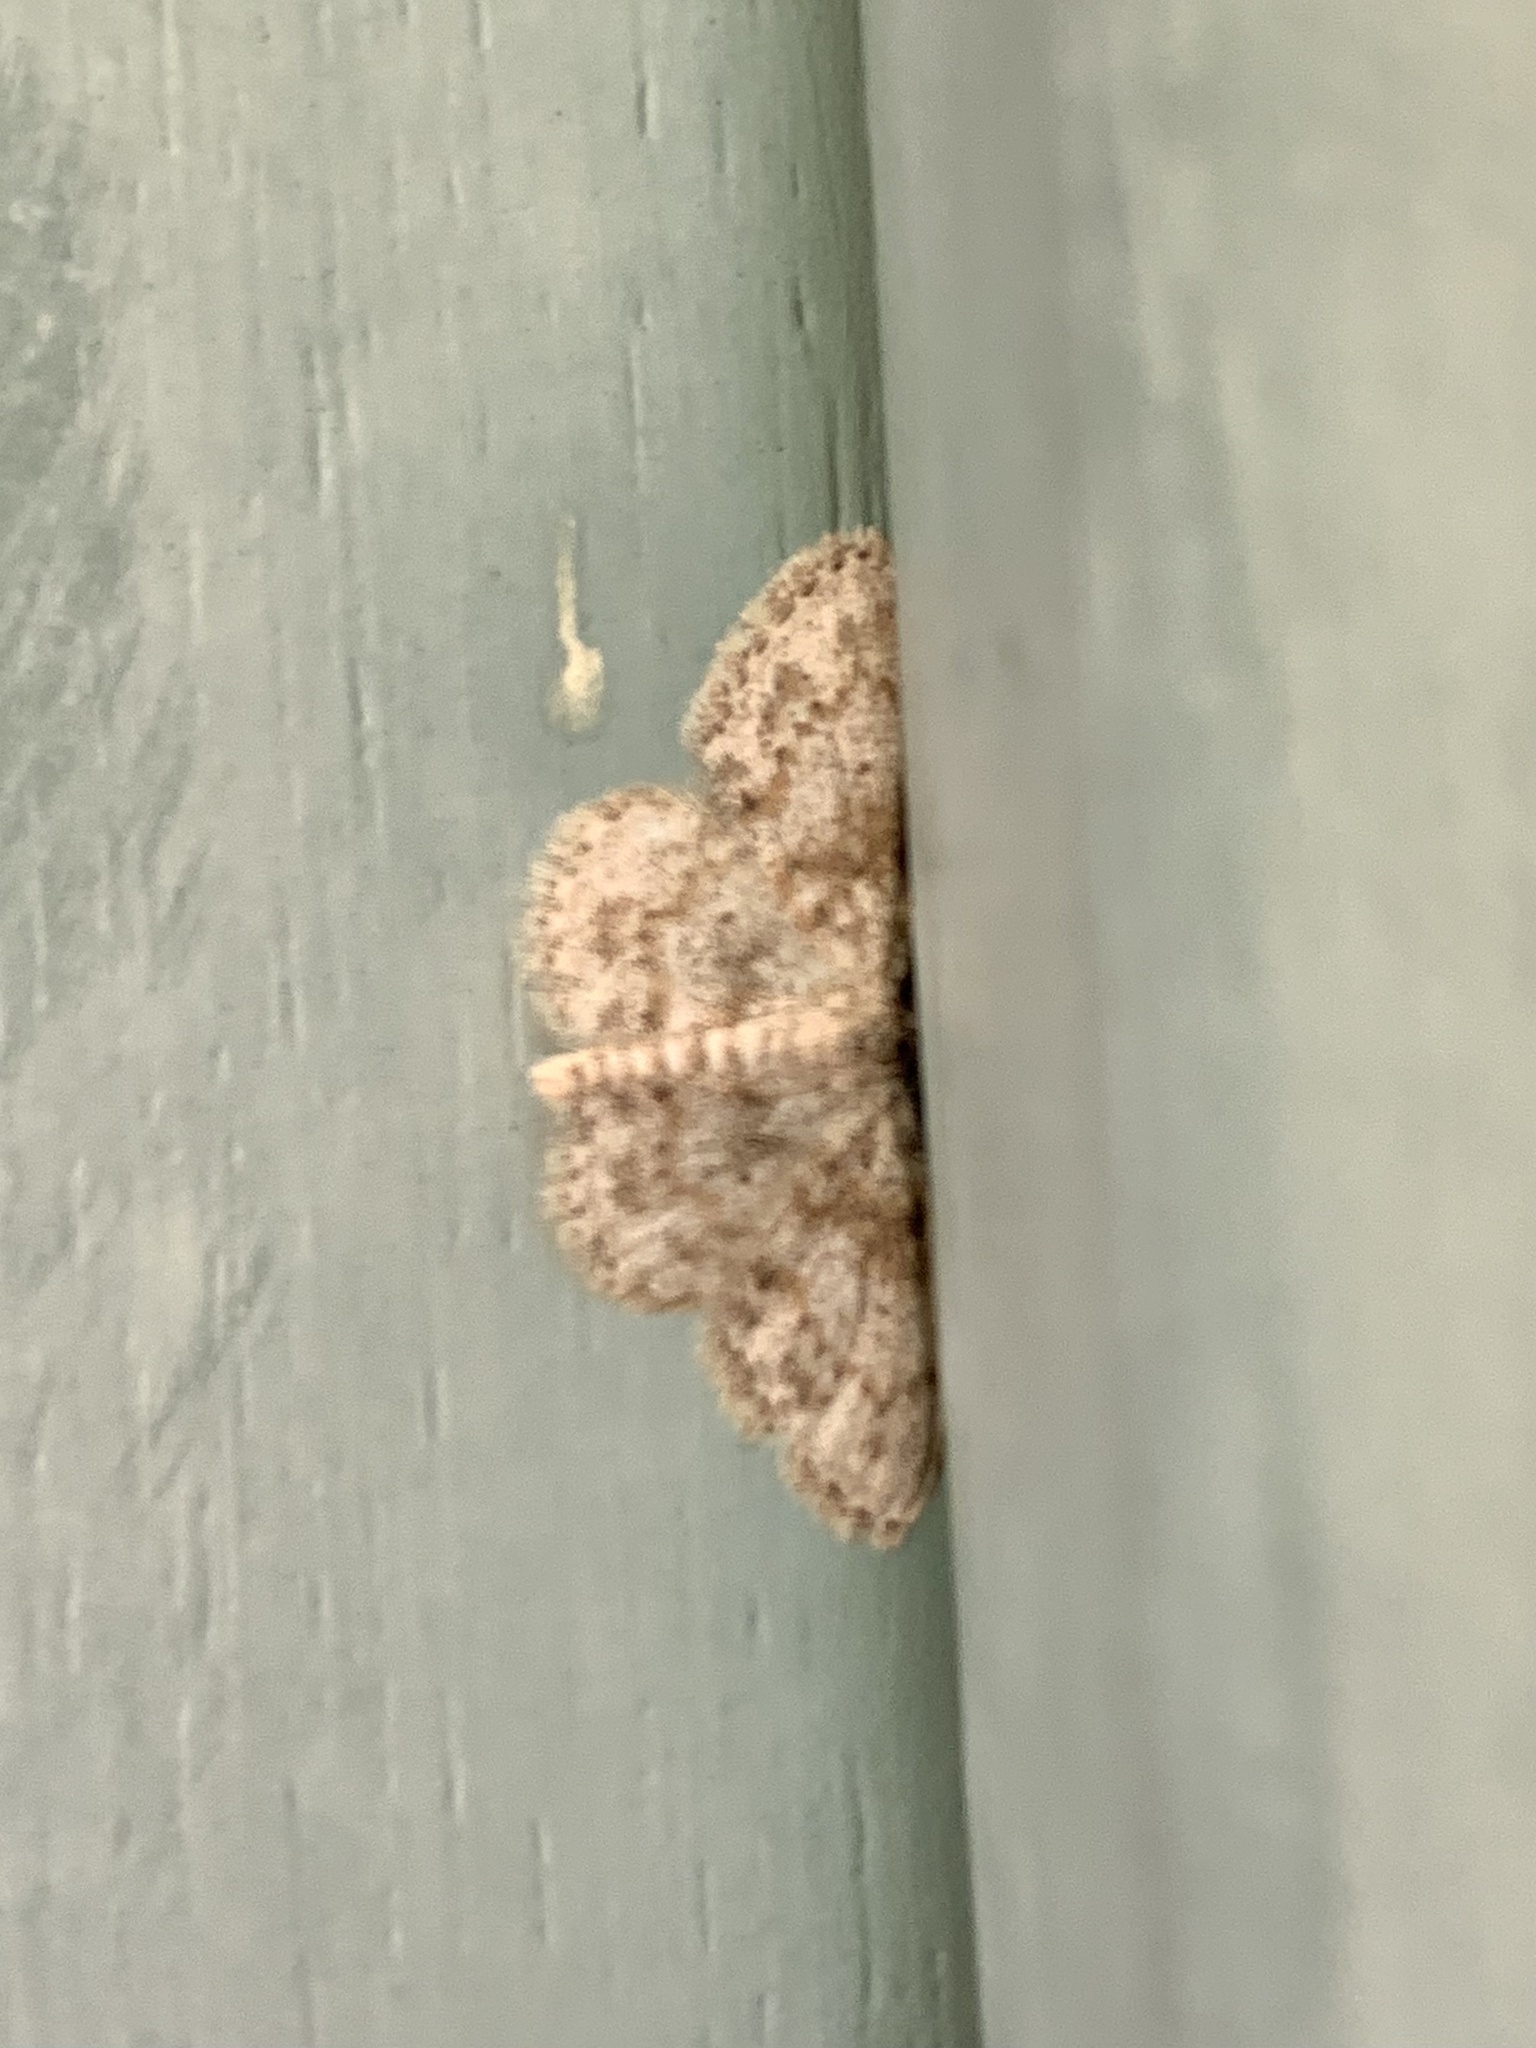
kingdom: Animalia
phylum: Arthropoda
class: Insecta
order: Lepidoptera
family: Geometridae
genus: Scopula
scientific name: Scopula luridata
